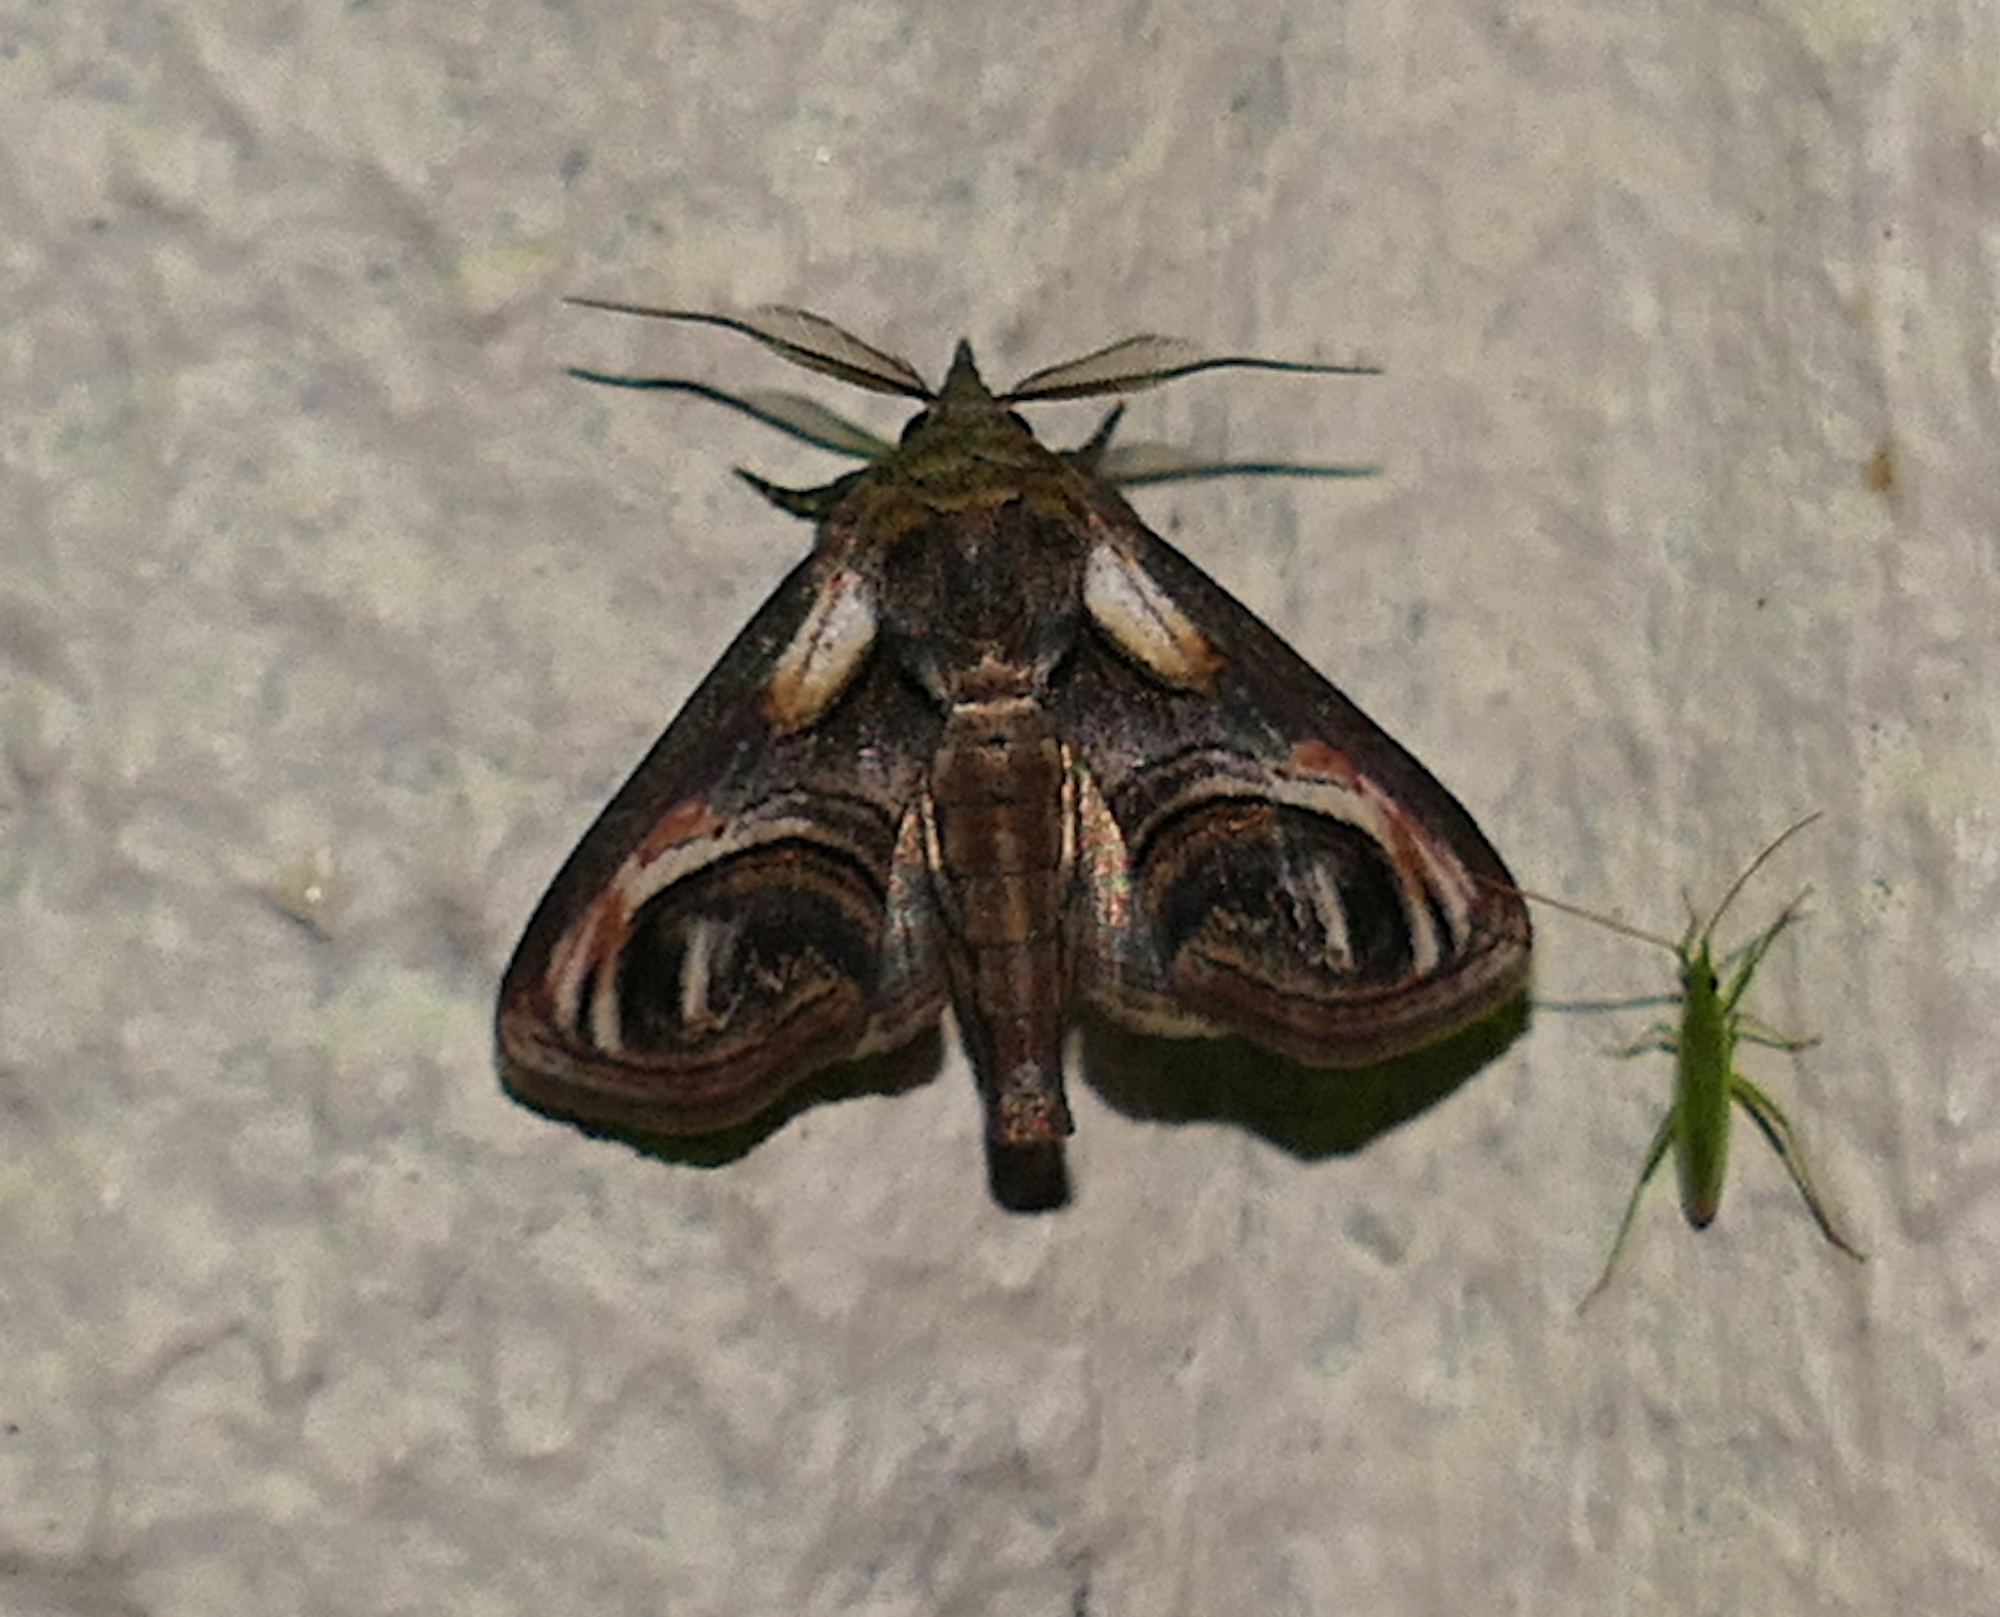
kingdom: Animalia
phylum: Arthropoda
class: Insecta
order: Lepidoptera
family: Euteliidae
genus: Paectes
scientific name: Paectes oculatrix
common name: Eyed paectes moth
